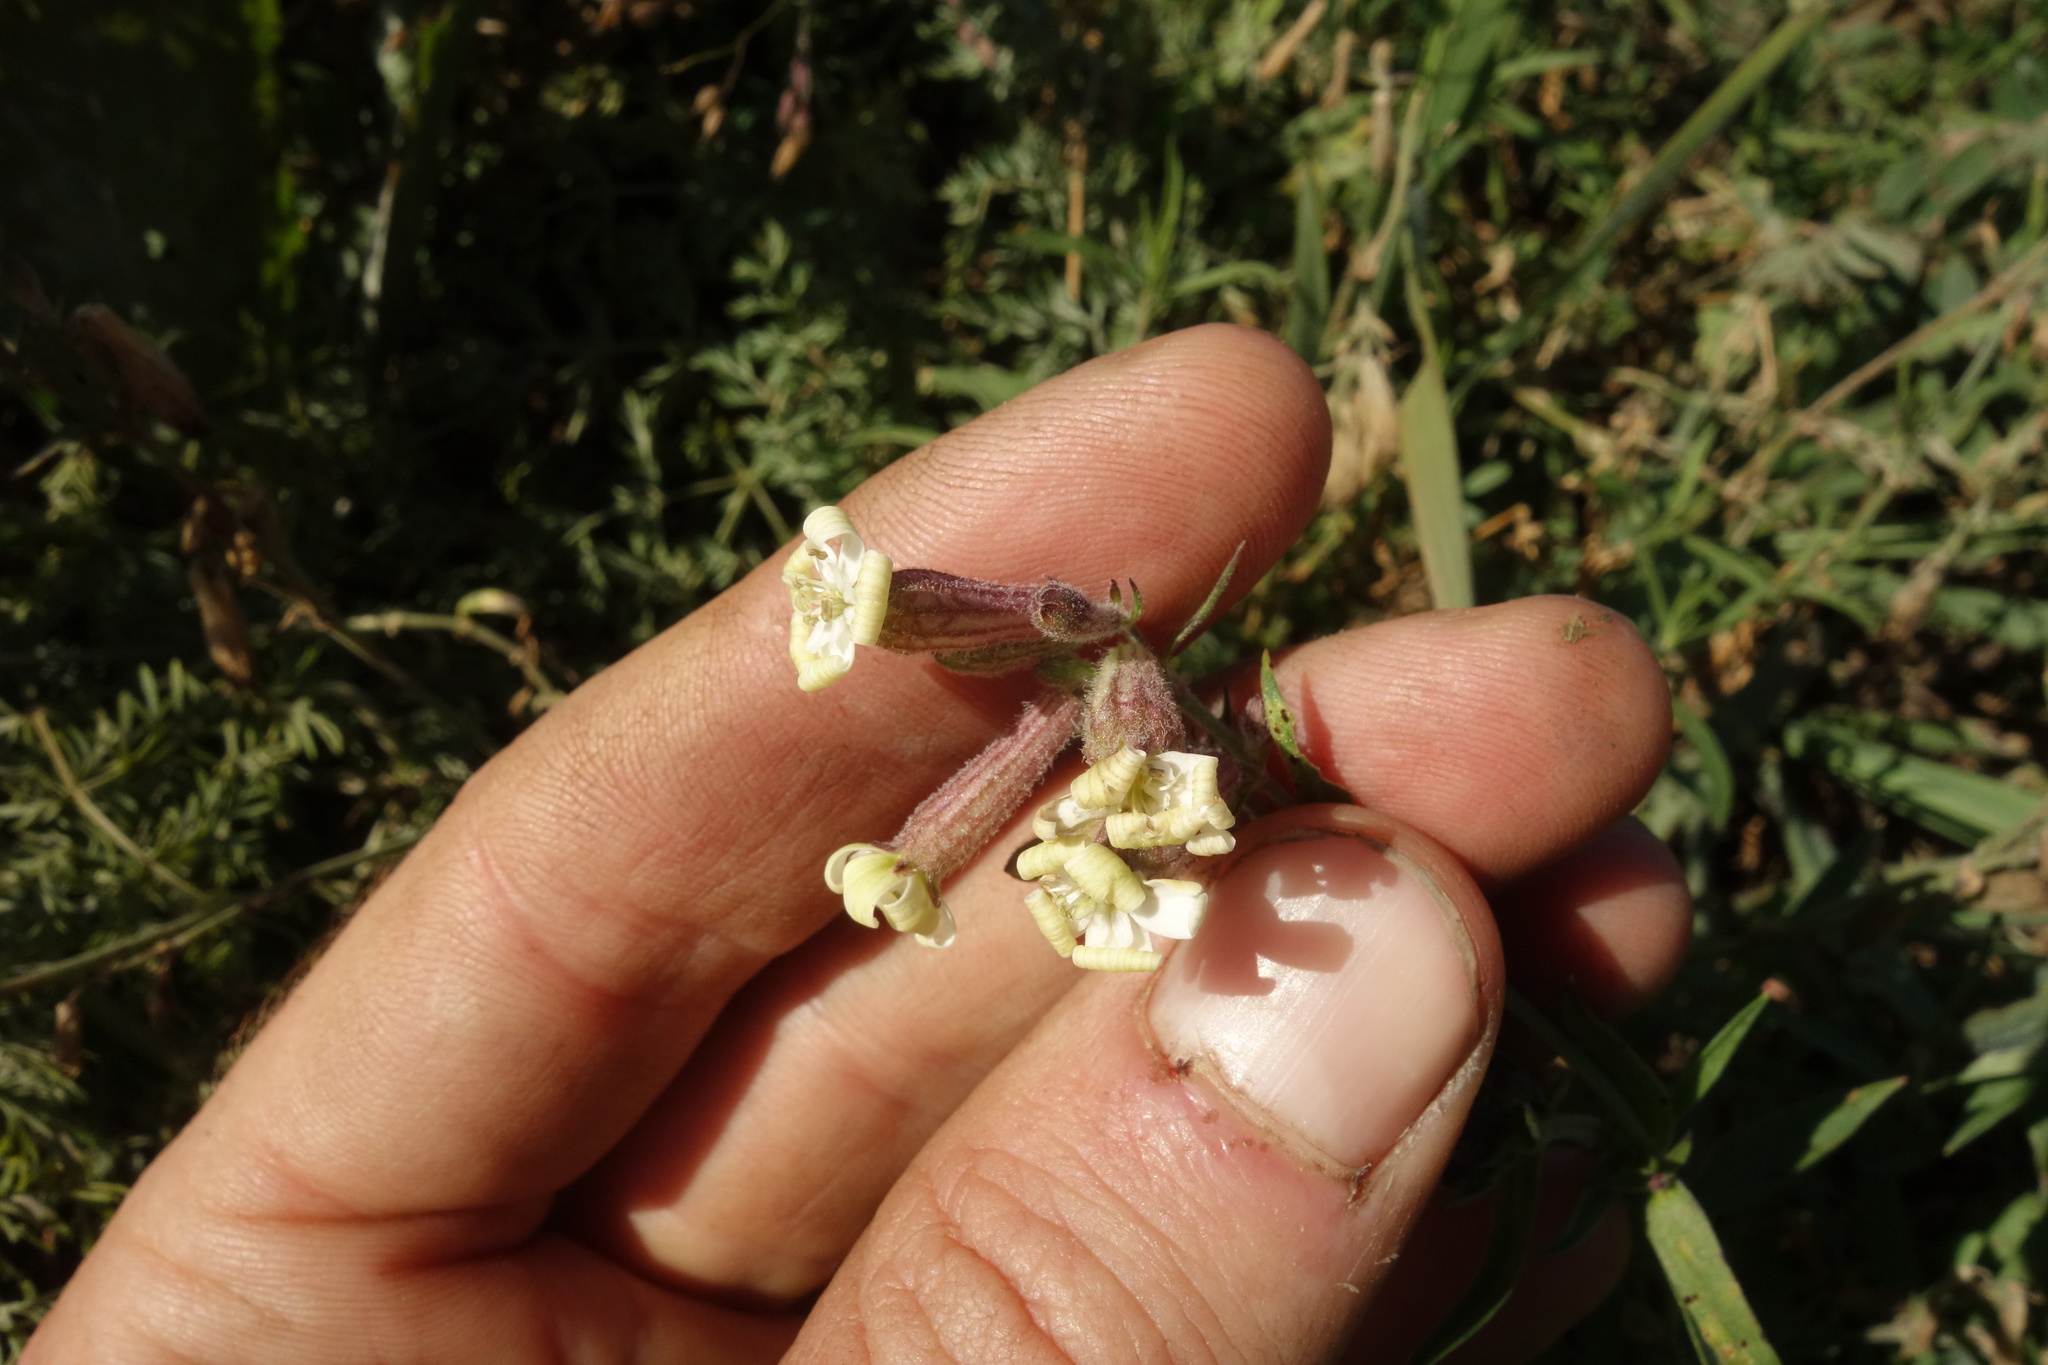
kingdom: Plantae
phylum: Tracheophyta
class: Magnoliopsida
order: Caryophyllales
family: Caryophyllaceae
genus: Silene
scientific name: Silene amoena
